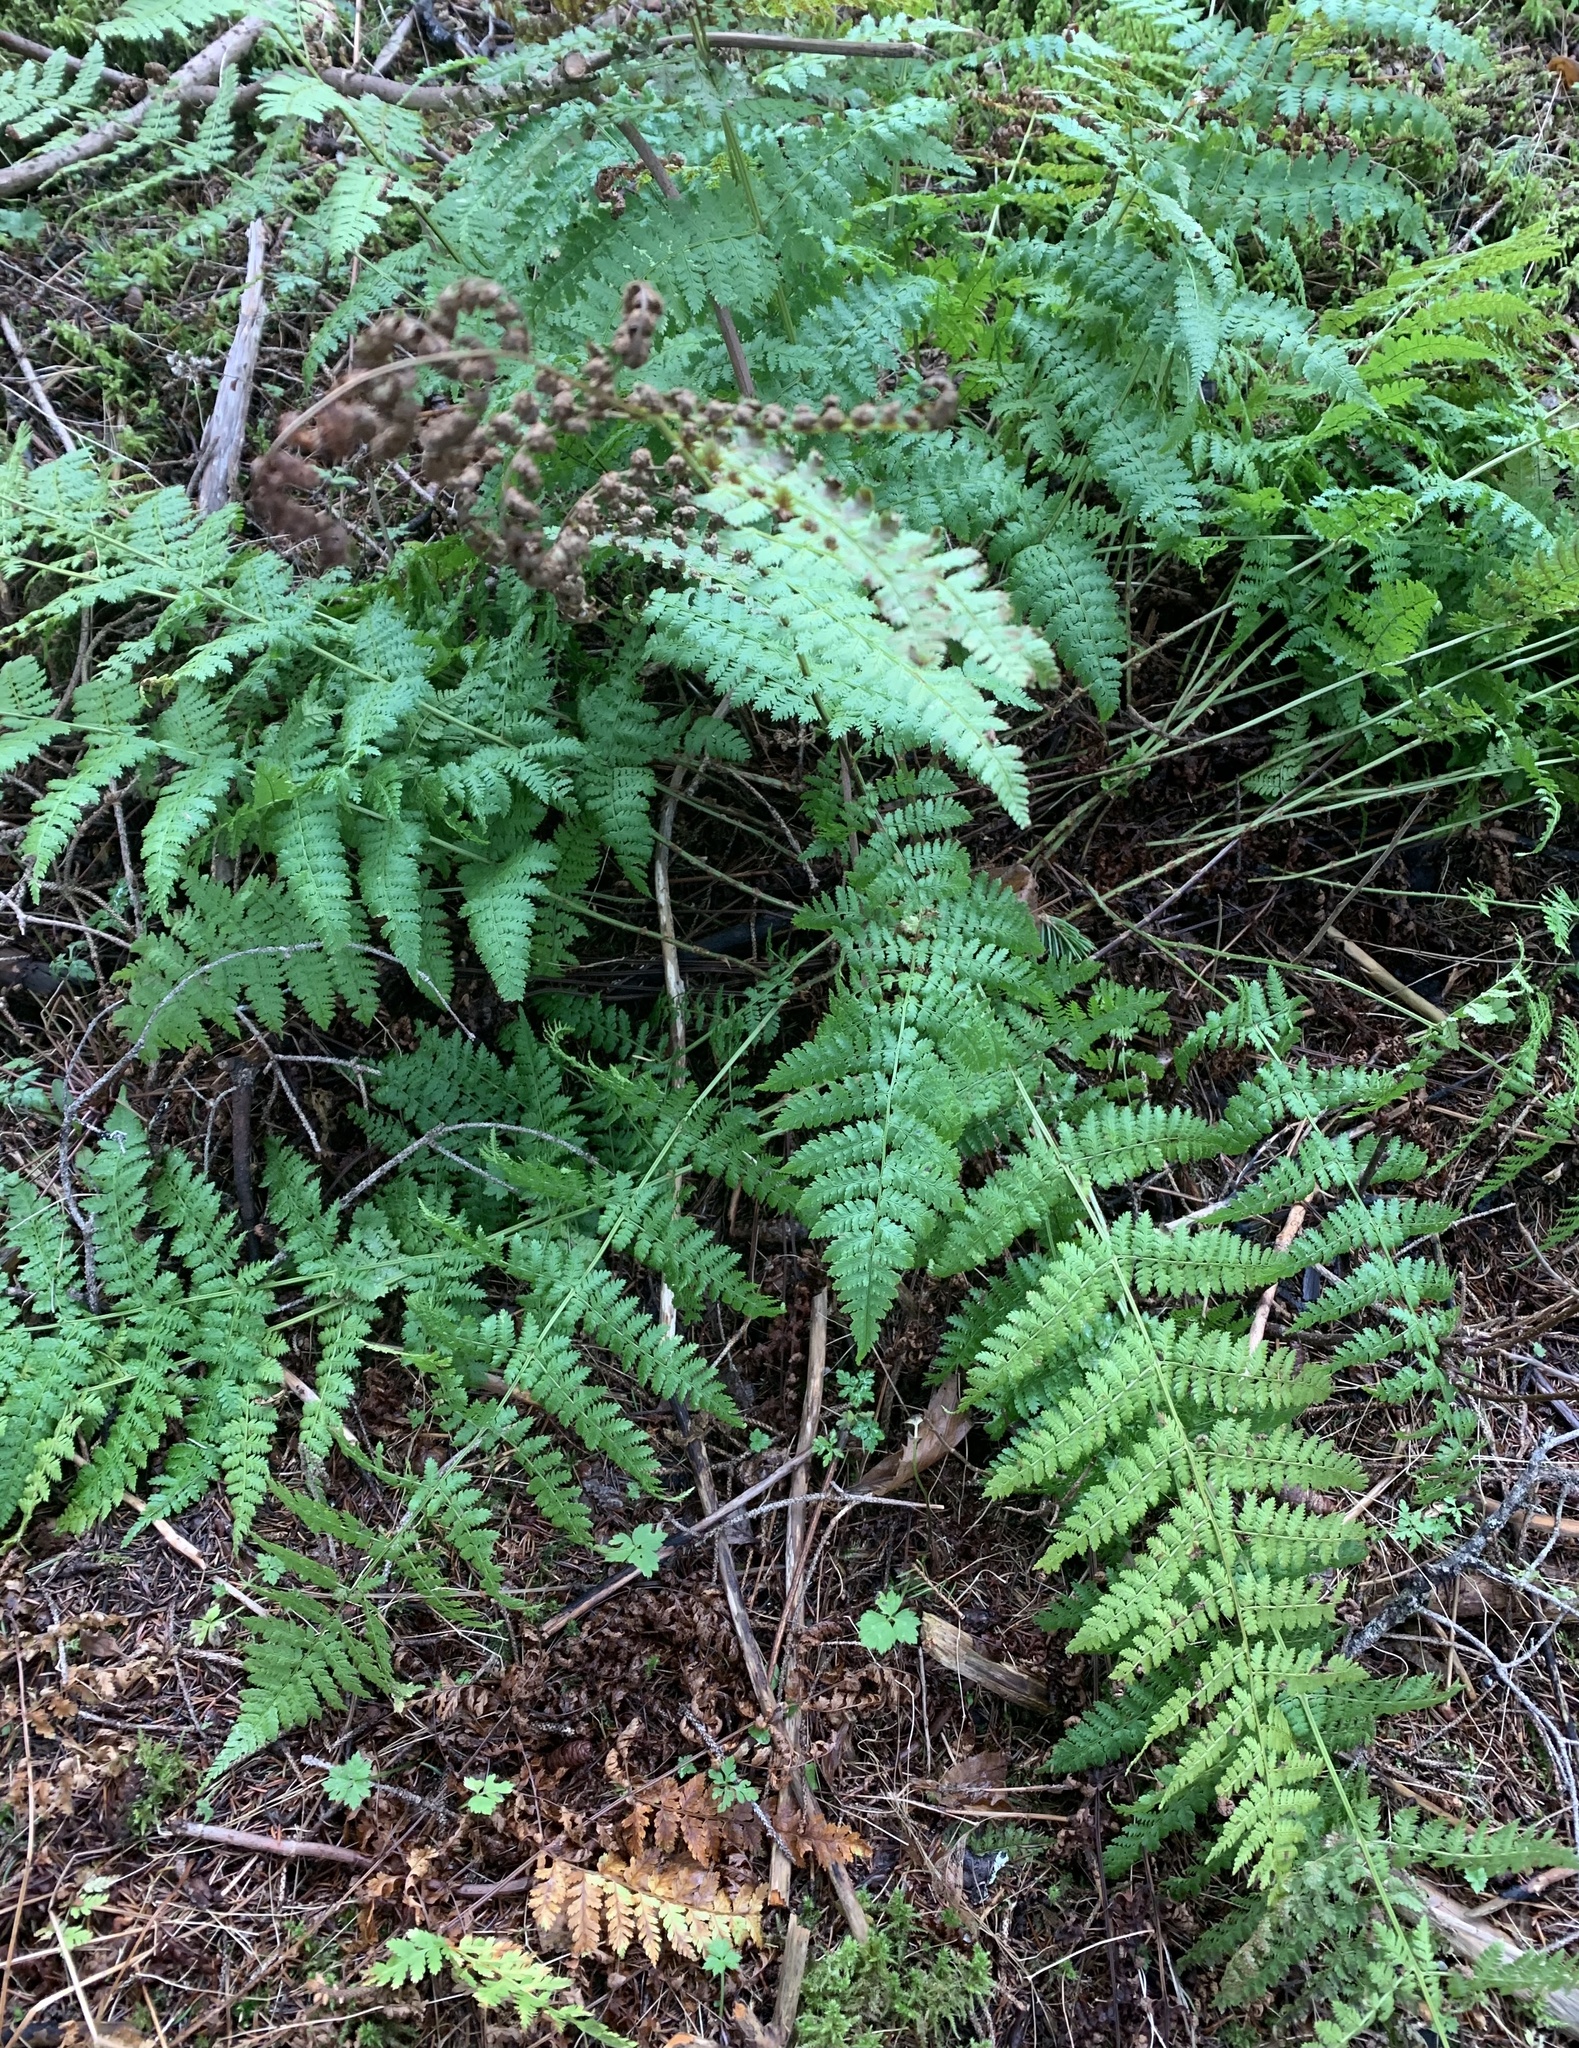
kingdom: Plantae
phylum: Tracheophyta
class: Polypodiopsida
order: Polypodiales
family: Dryopteridaceae
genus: Dryopteris
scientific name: Dryopteris intermedia
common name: Evergreen wood fern
